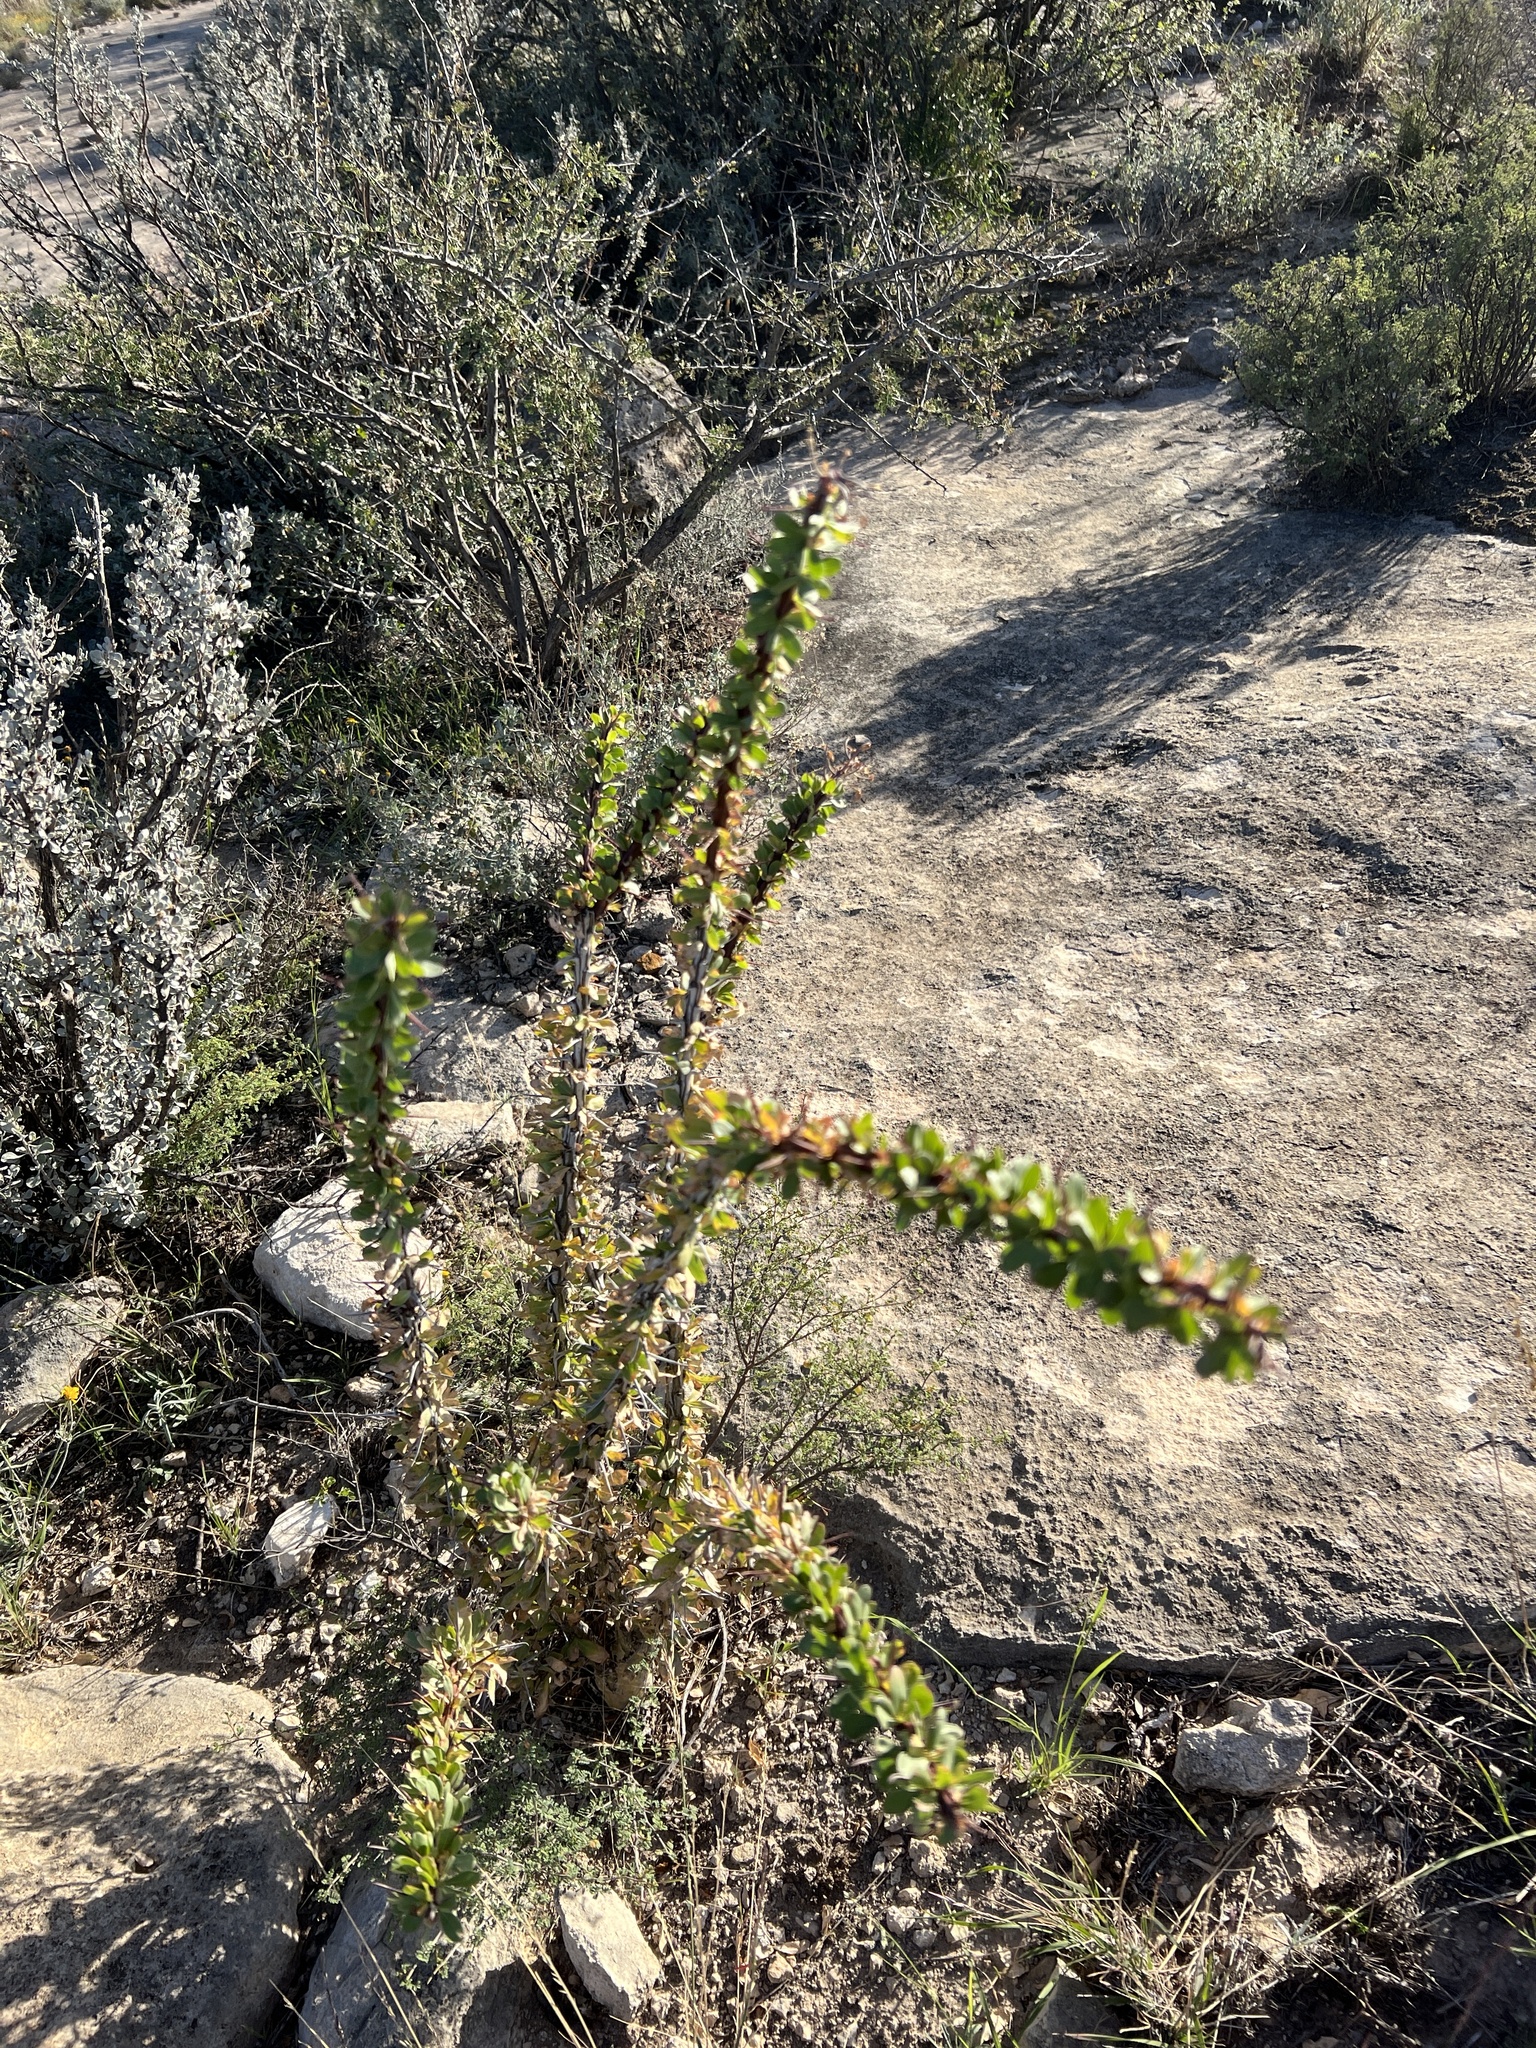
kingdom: Plantae
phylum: Tracheophyta
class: Magnoliopsida
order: Ericales
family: Fouquieriaceae
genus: Fouquieria
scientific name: Fouquieria splendens
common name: Vine-cactus
